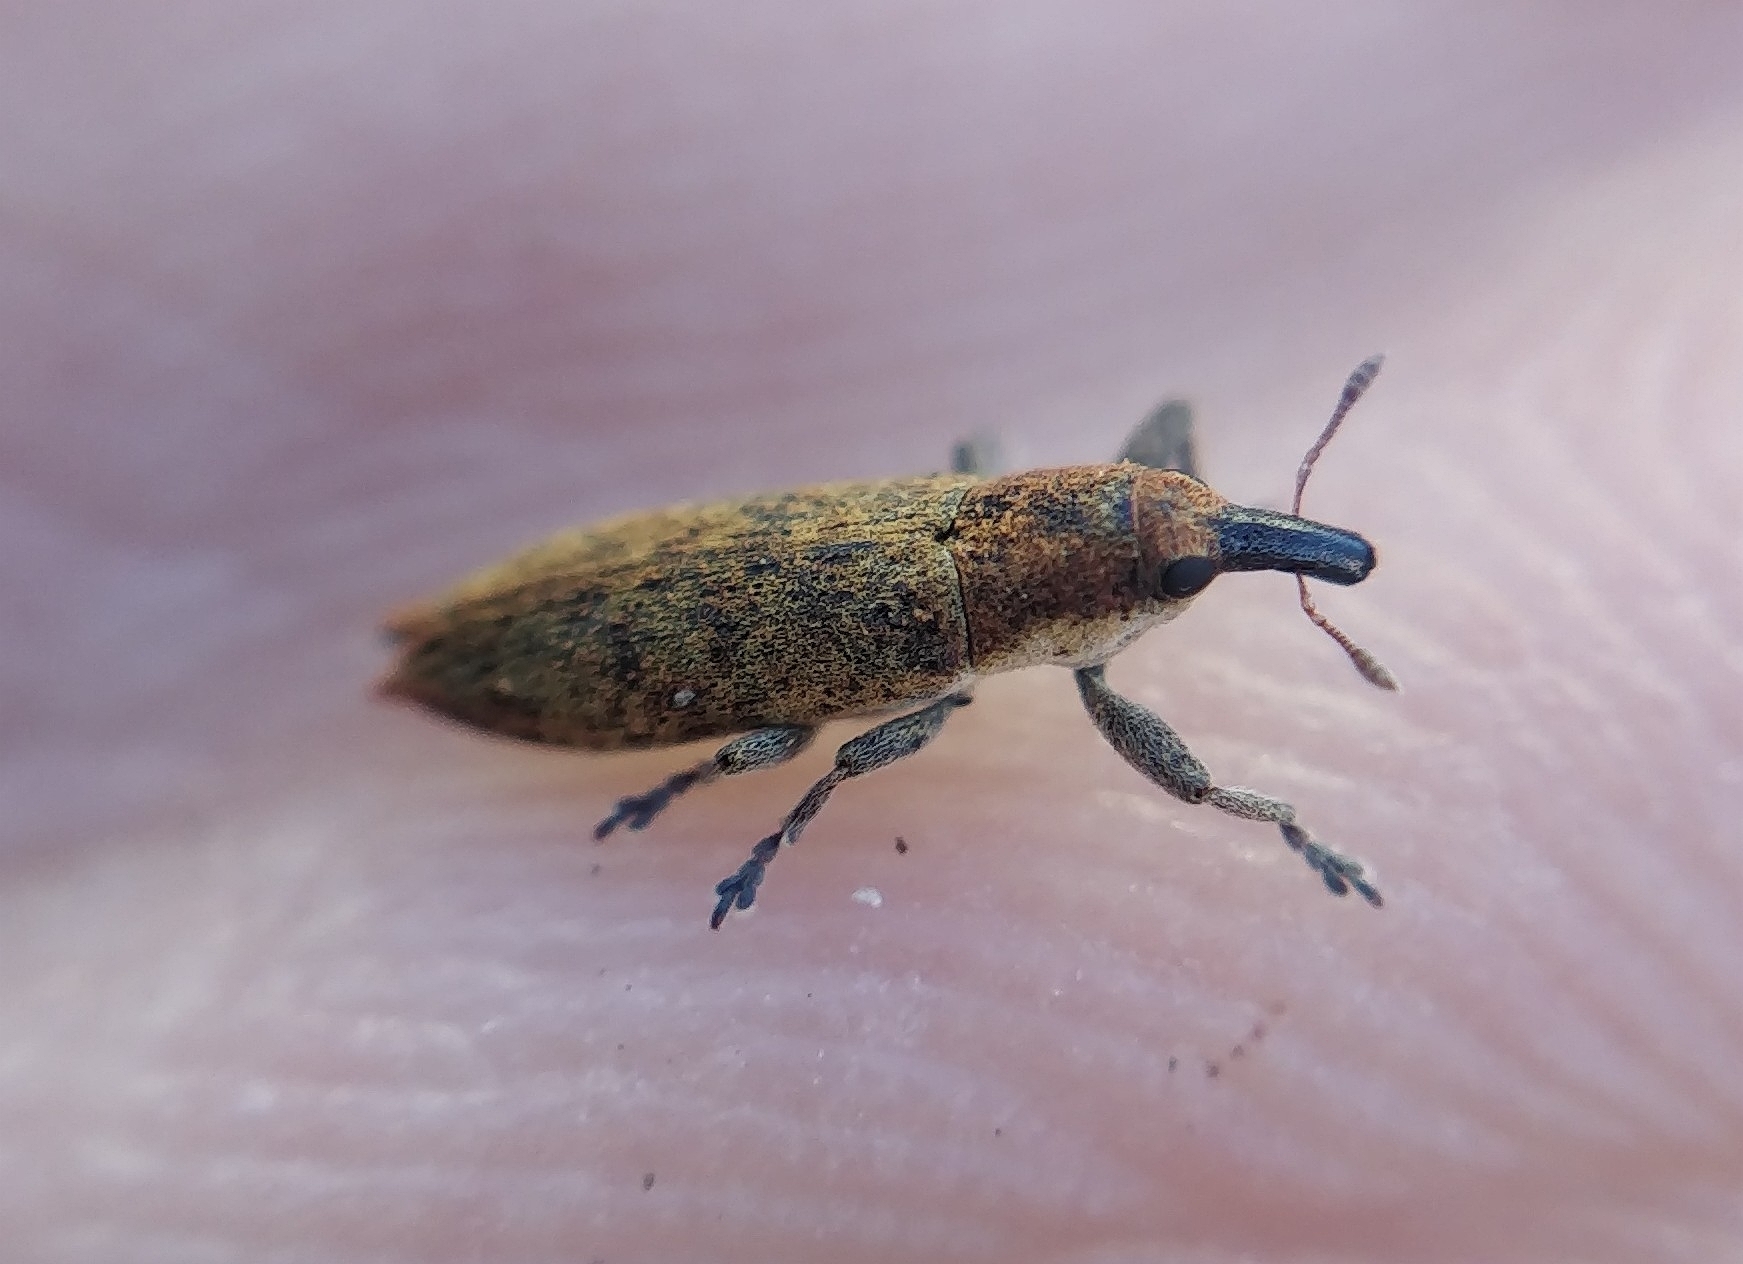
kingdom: Animalia
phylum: Arthropoda
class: Insecta
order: Coleoptera
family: Curculionidae
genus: Lixus
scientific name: Lixus brevirostris
